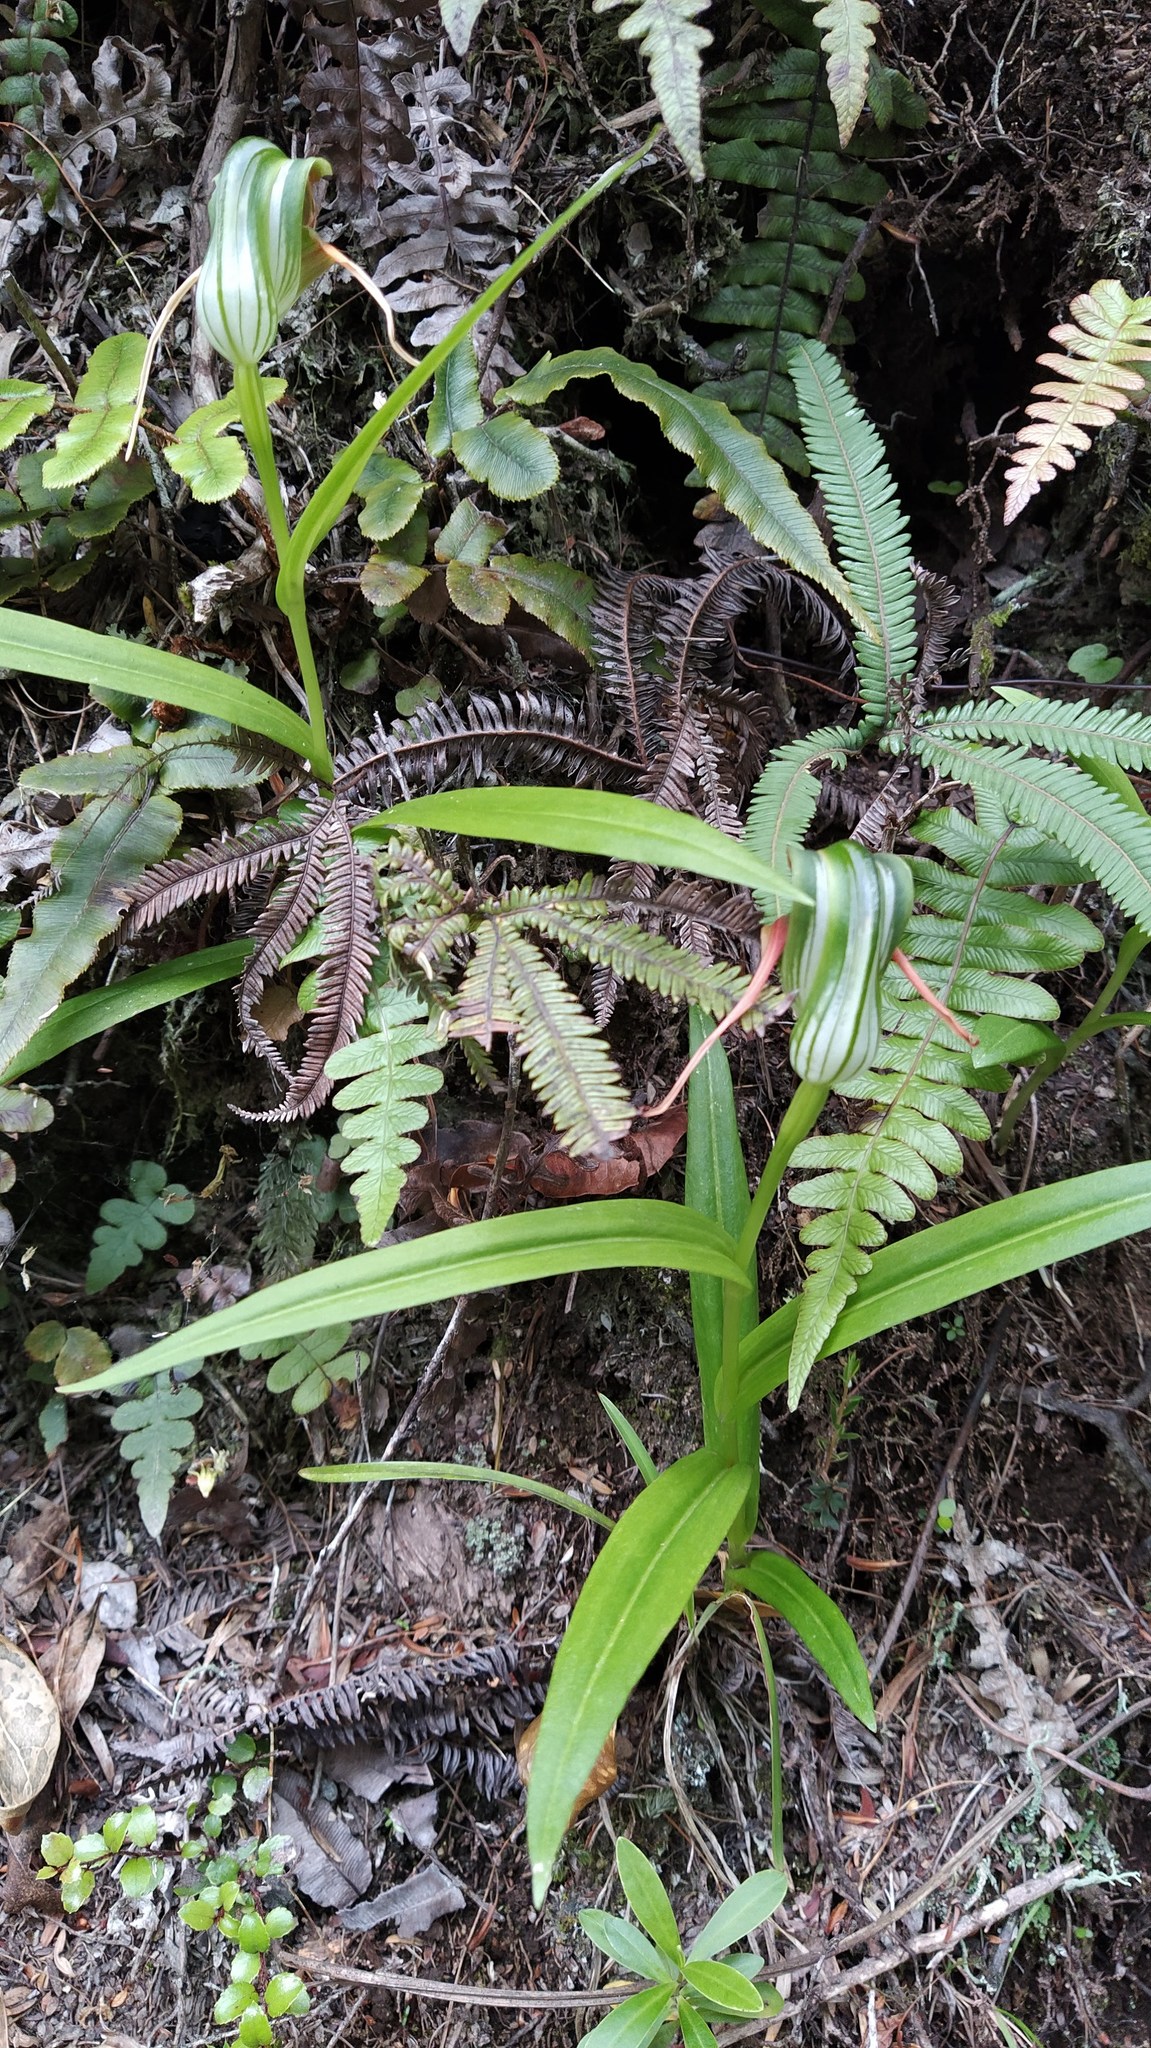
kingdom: Plantae
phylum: Tracheophyta
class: Liliopsida
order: Asparagales
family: Orchidaceae
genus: Pterostylis
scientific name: Pterostylis patens
